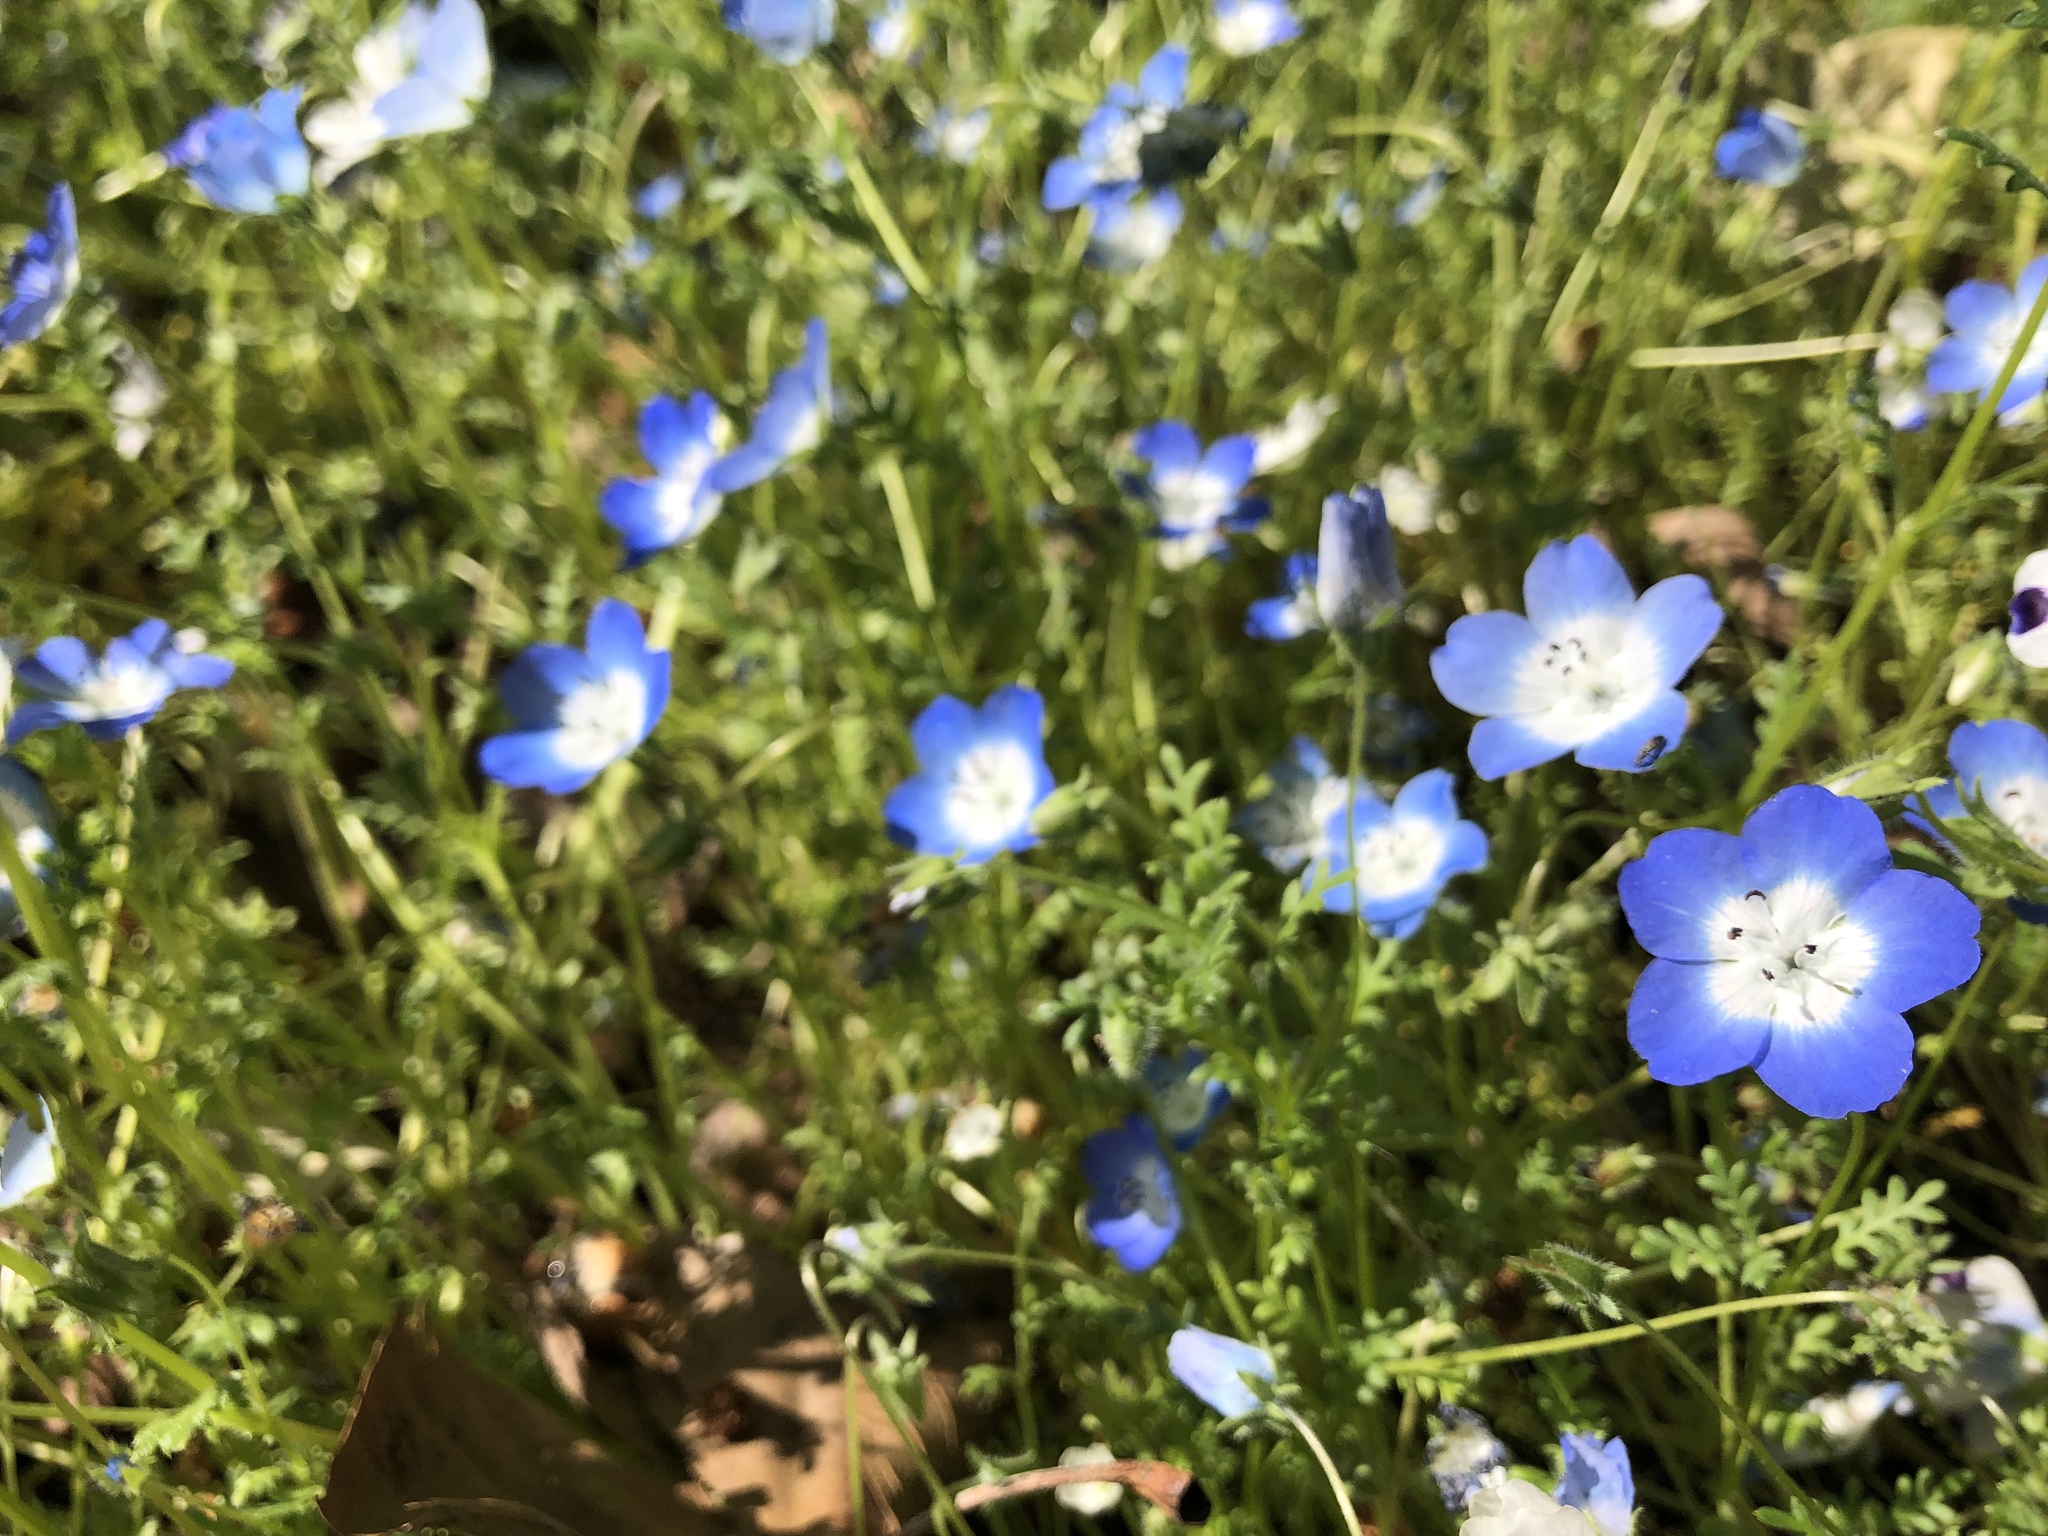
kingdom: Plantae
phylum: Tracheophyta
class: Magnoliopsida
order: Boraginales
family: Hydrophyllaceae
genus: Nemophila
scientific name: Nemophila menziesii
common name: Baby's-blue-eyes
